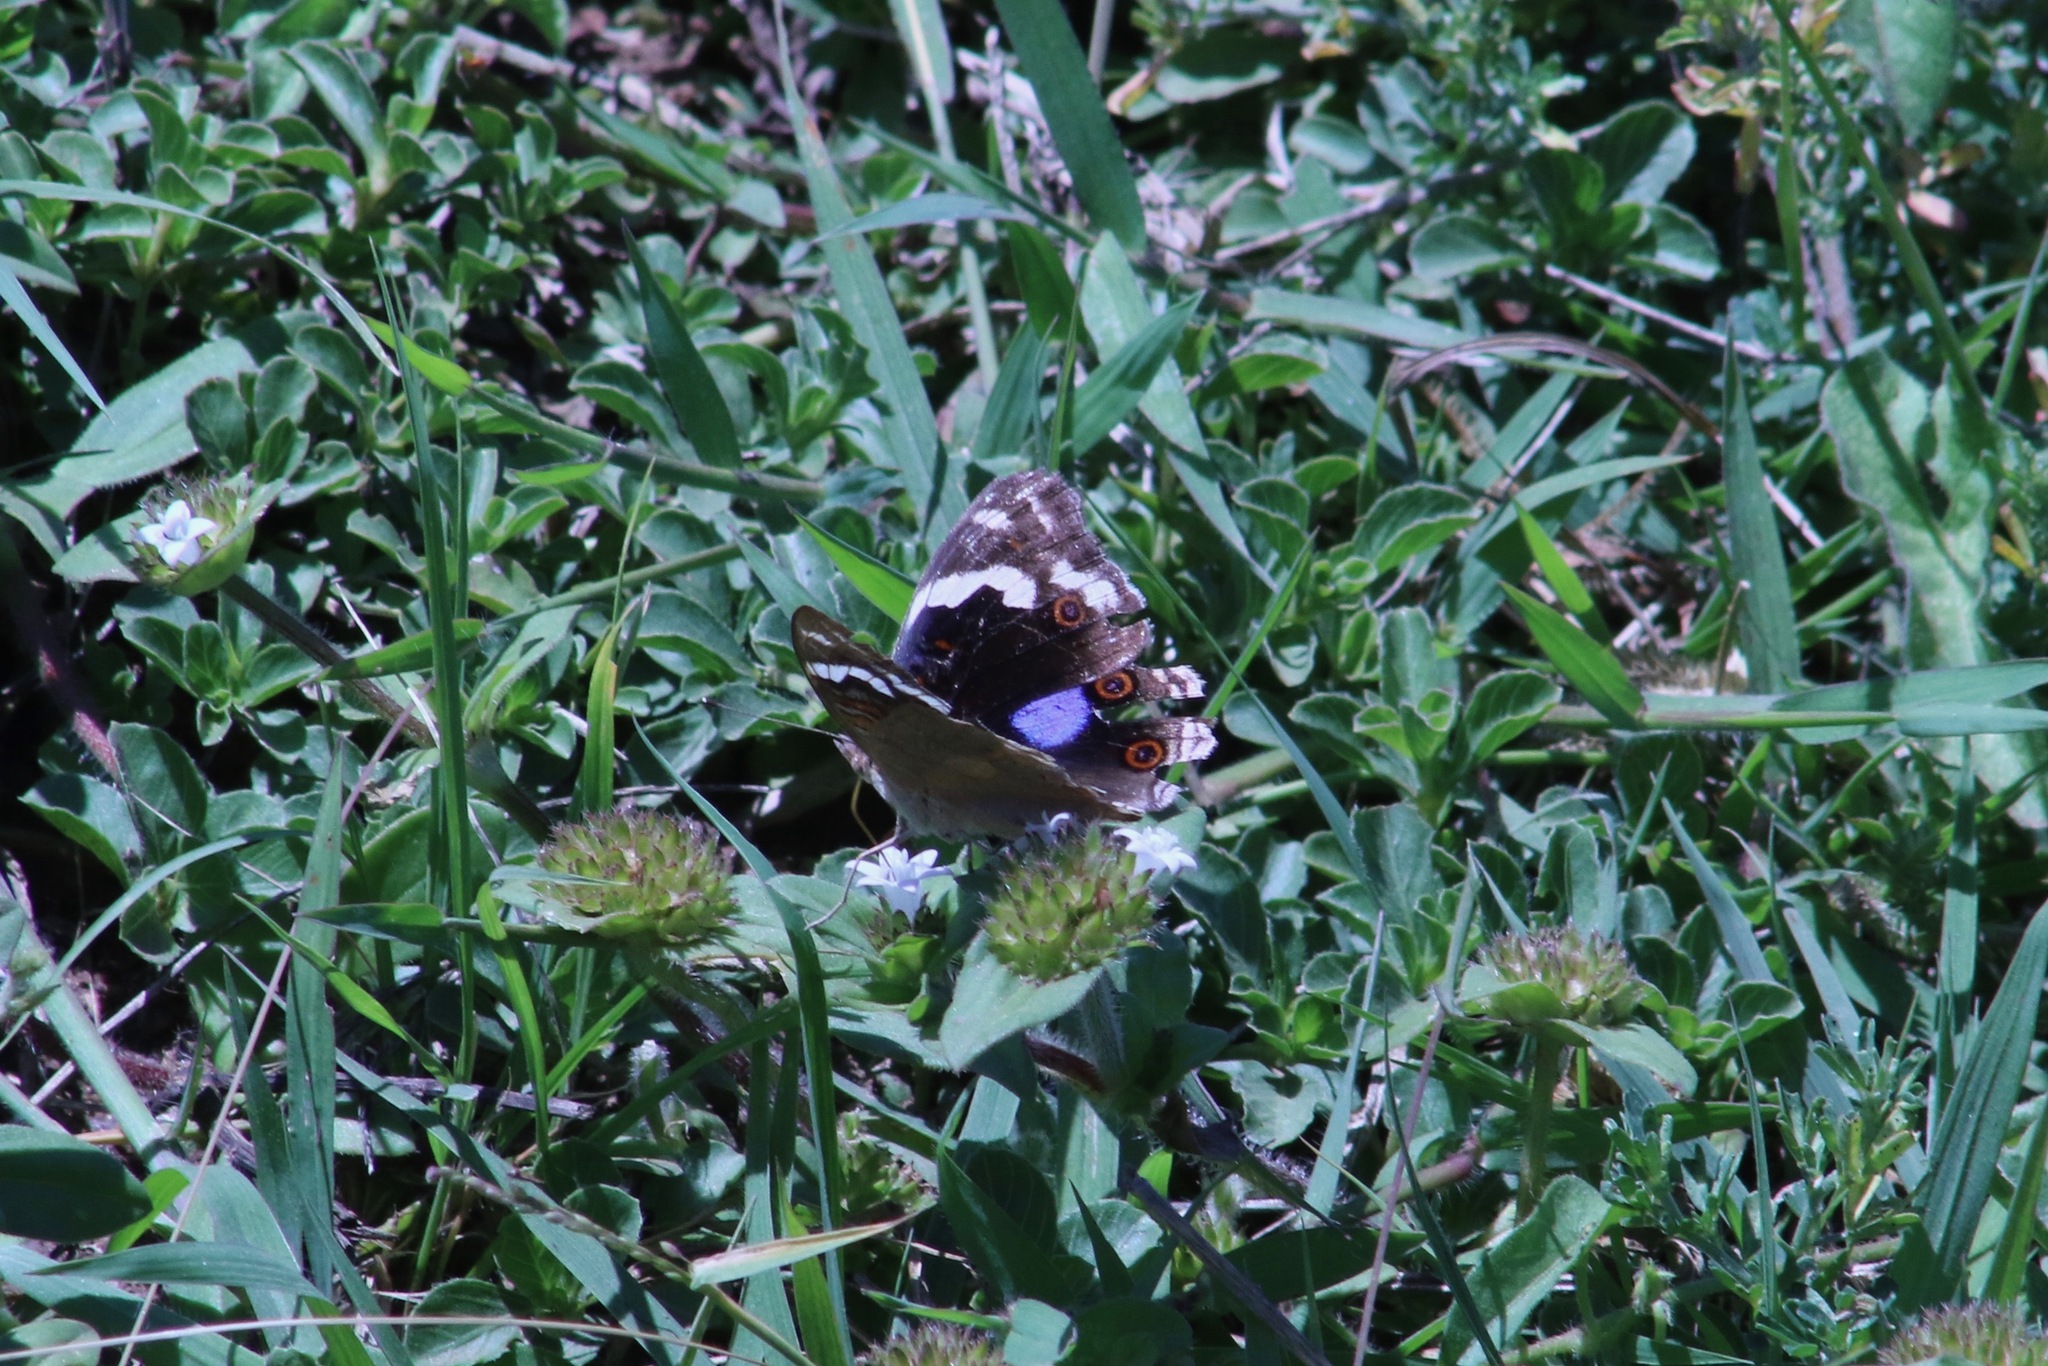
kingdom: Animalia
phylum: Arthropoda
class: Insecta
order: Lepidoptera
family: Nymphalidae
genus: Junonia
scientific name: Junonia oenone
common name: Dark blue pansy
